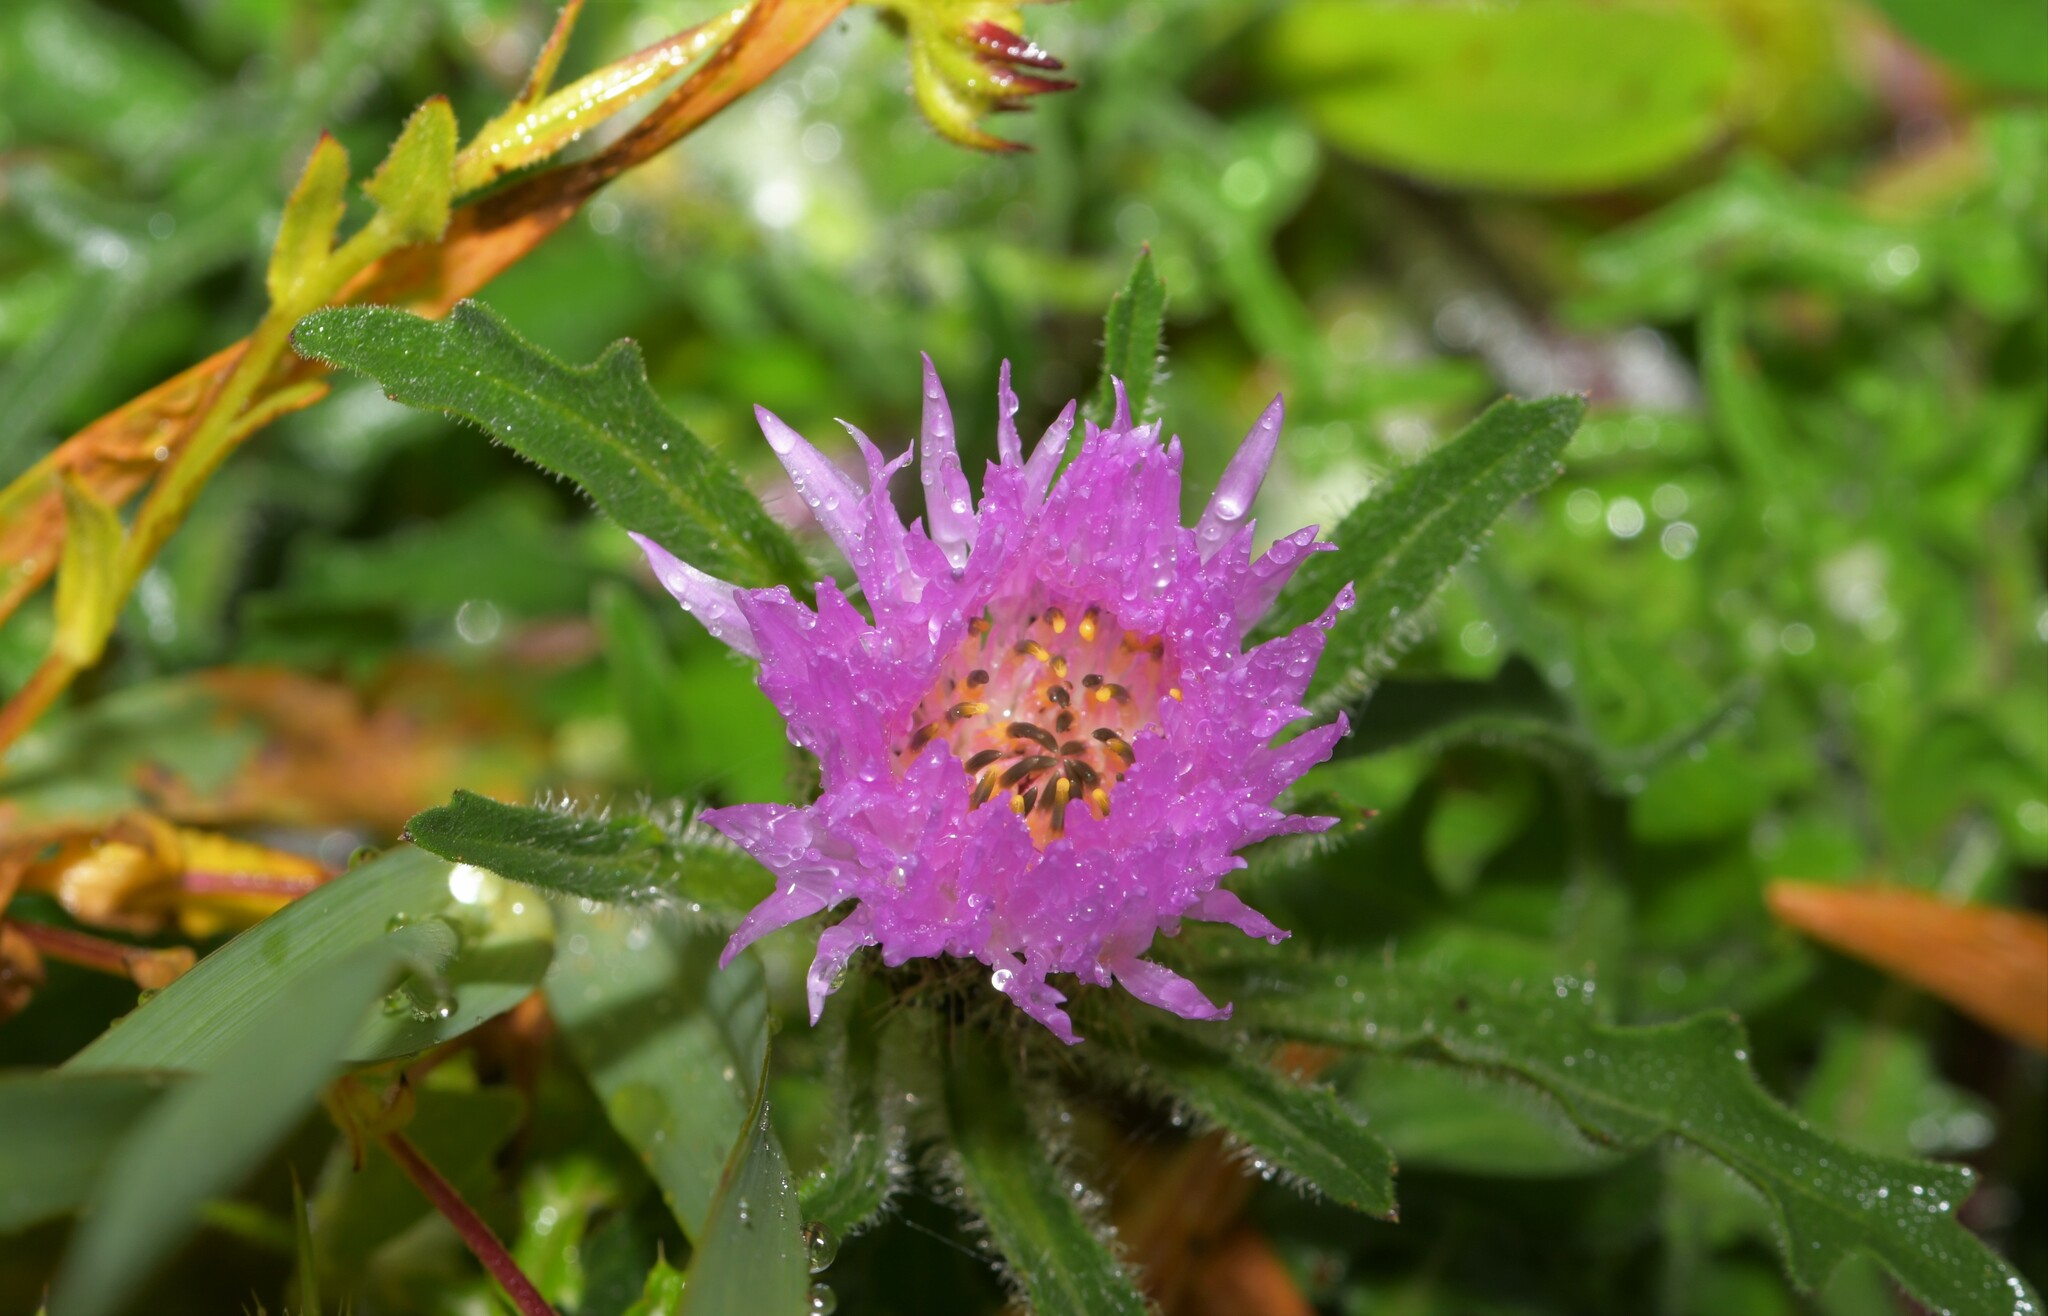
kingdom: Plantae
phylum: Tracheophyta
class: Magnoliopsida
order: Asterales
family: Asteraceae
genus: Centaurea
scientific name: Centaurea pullata
